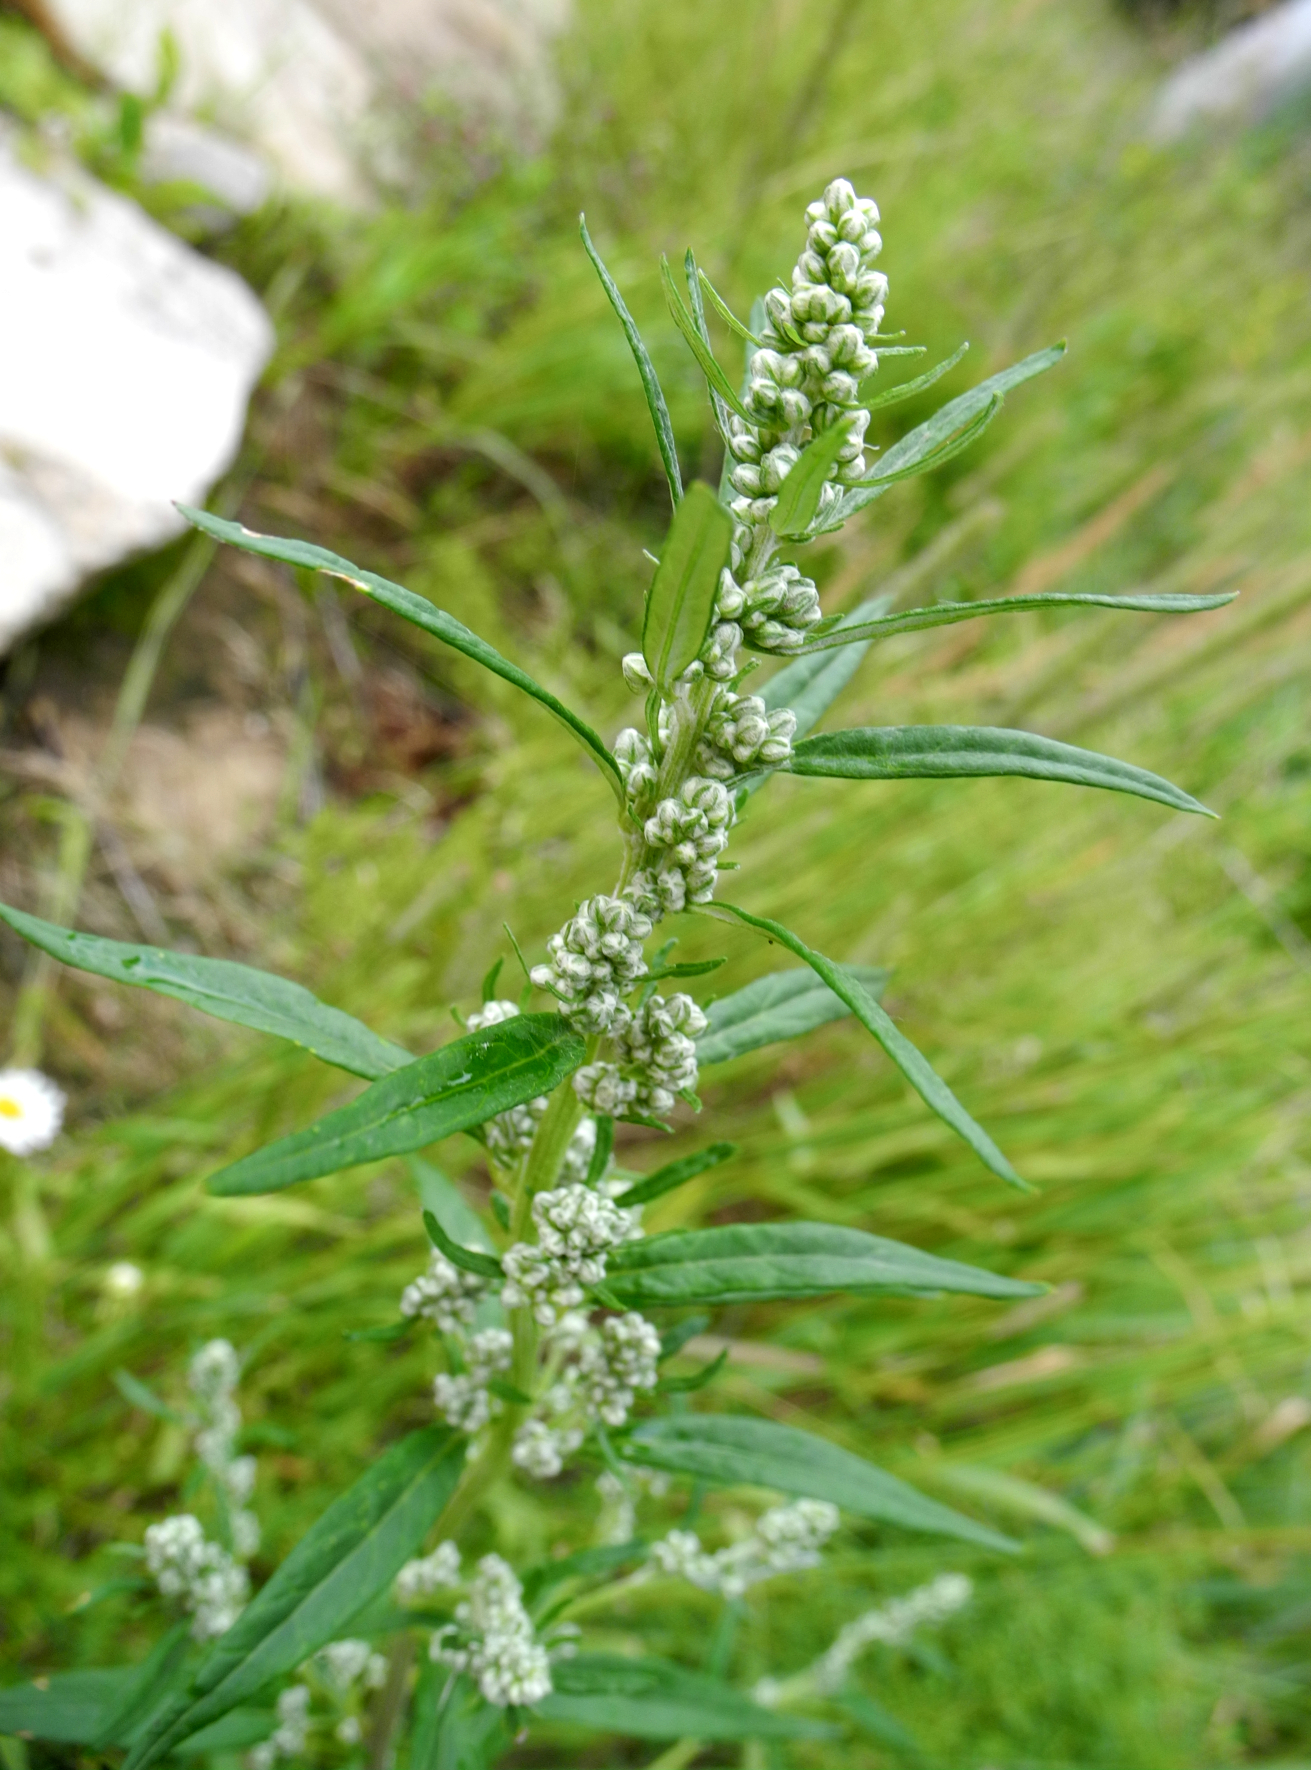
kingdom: Plantae
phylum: Tracheophyta
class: Magnoliopsida
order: Asterales
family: Asteraceae
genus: Artemisia
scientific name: Artemisia vulgaris
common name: Mugwort
